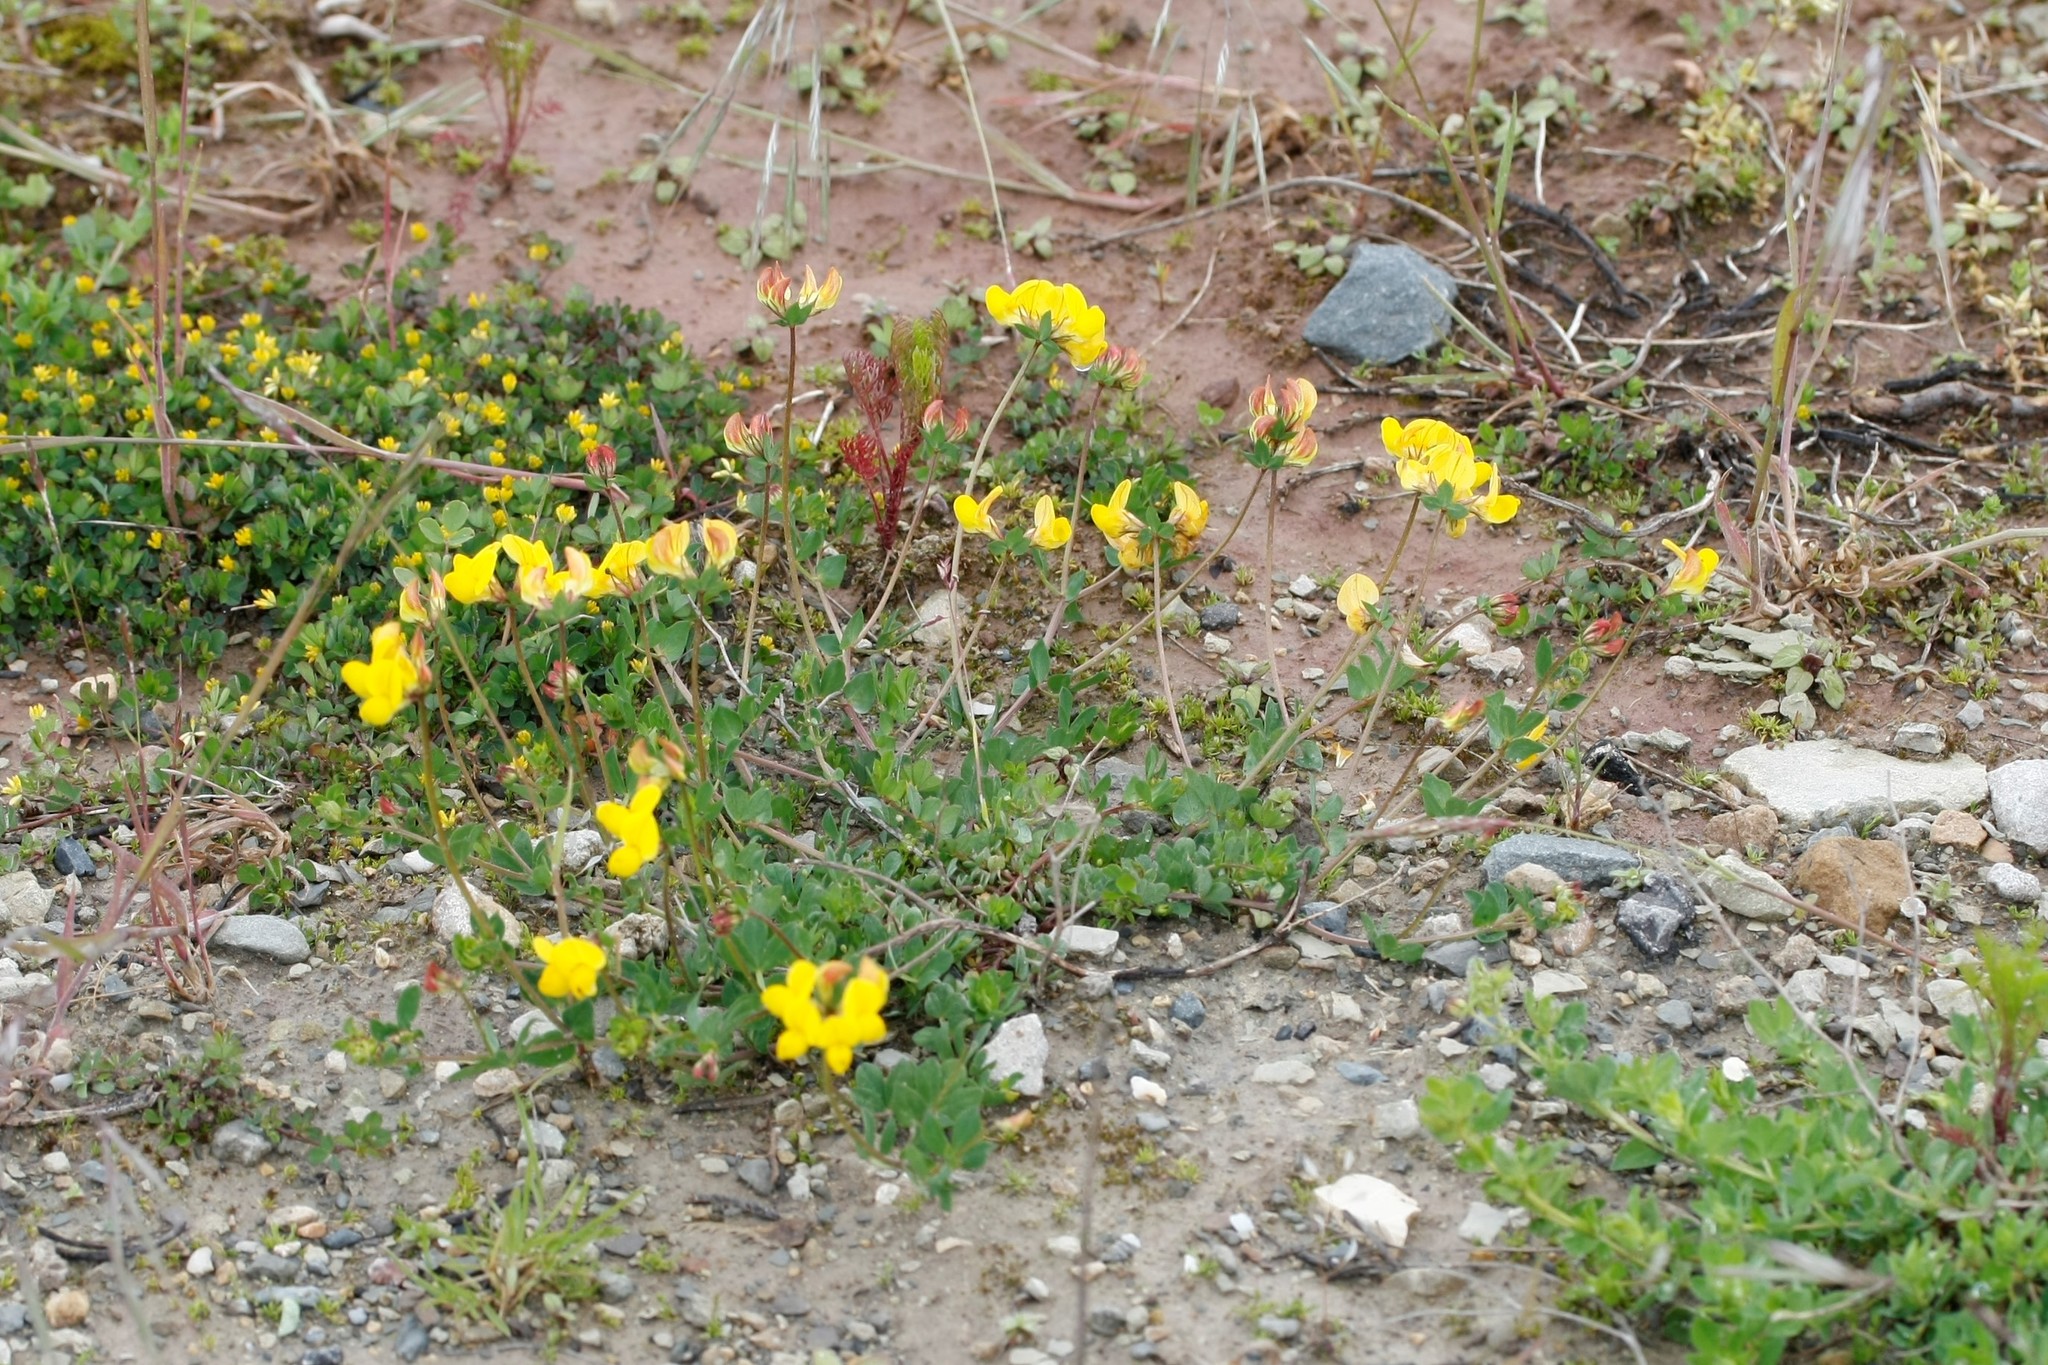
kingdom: Plantae
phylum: Tracheophyta
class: Magnoliopsida
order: Fabales
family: Fabaceae
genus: Lotus
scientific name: Lotus corniculatus
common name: Common bird's-foot-trefoil
